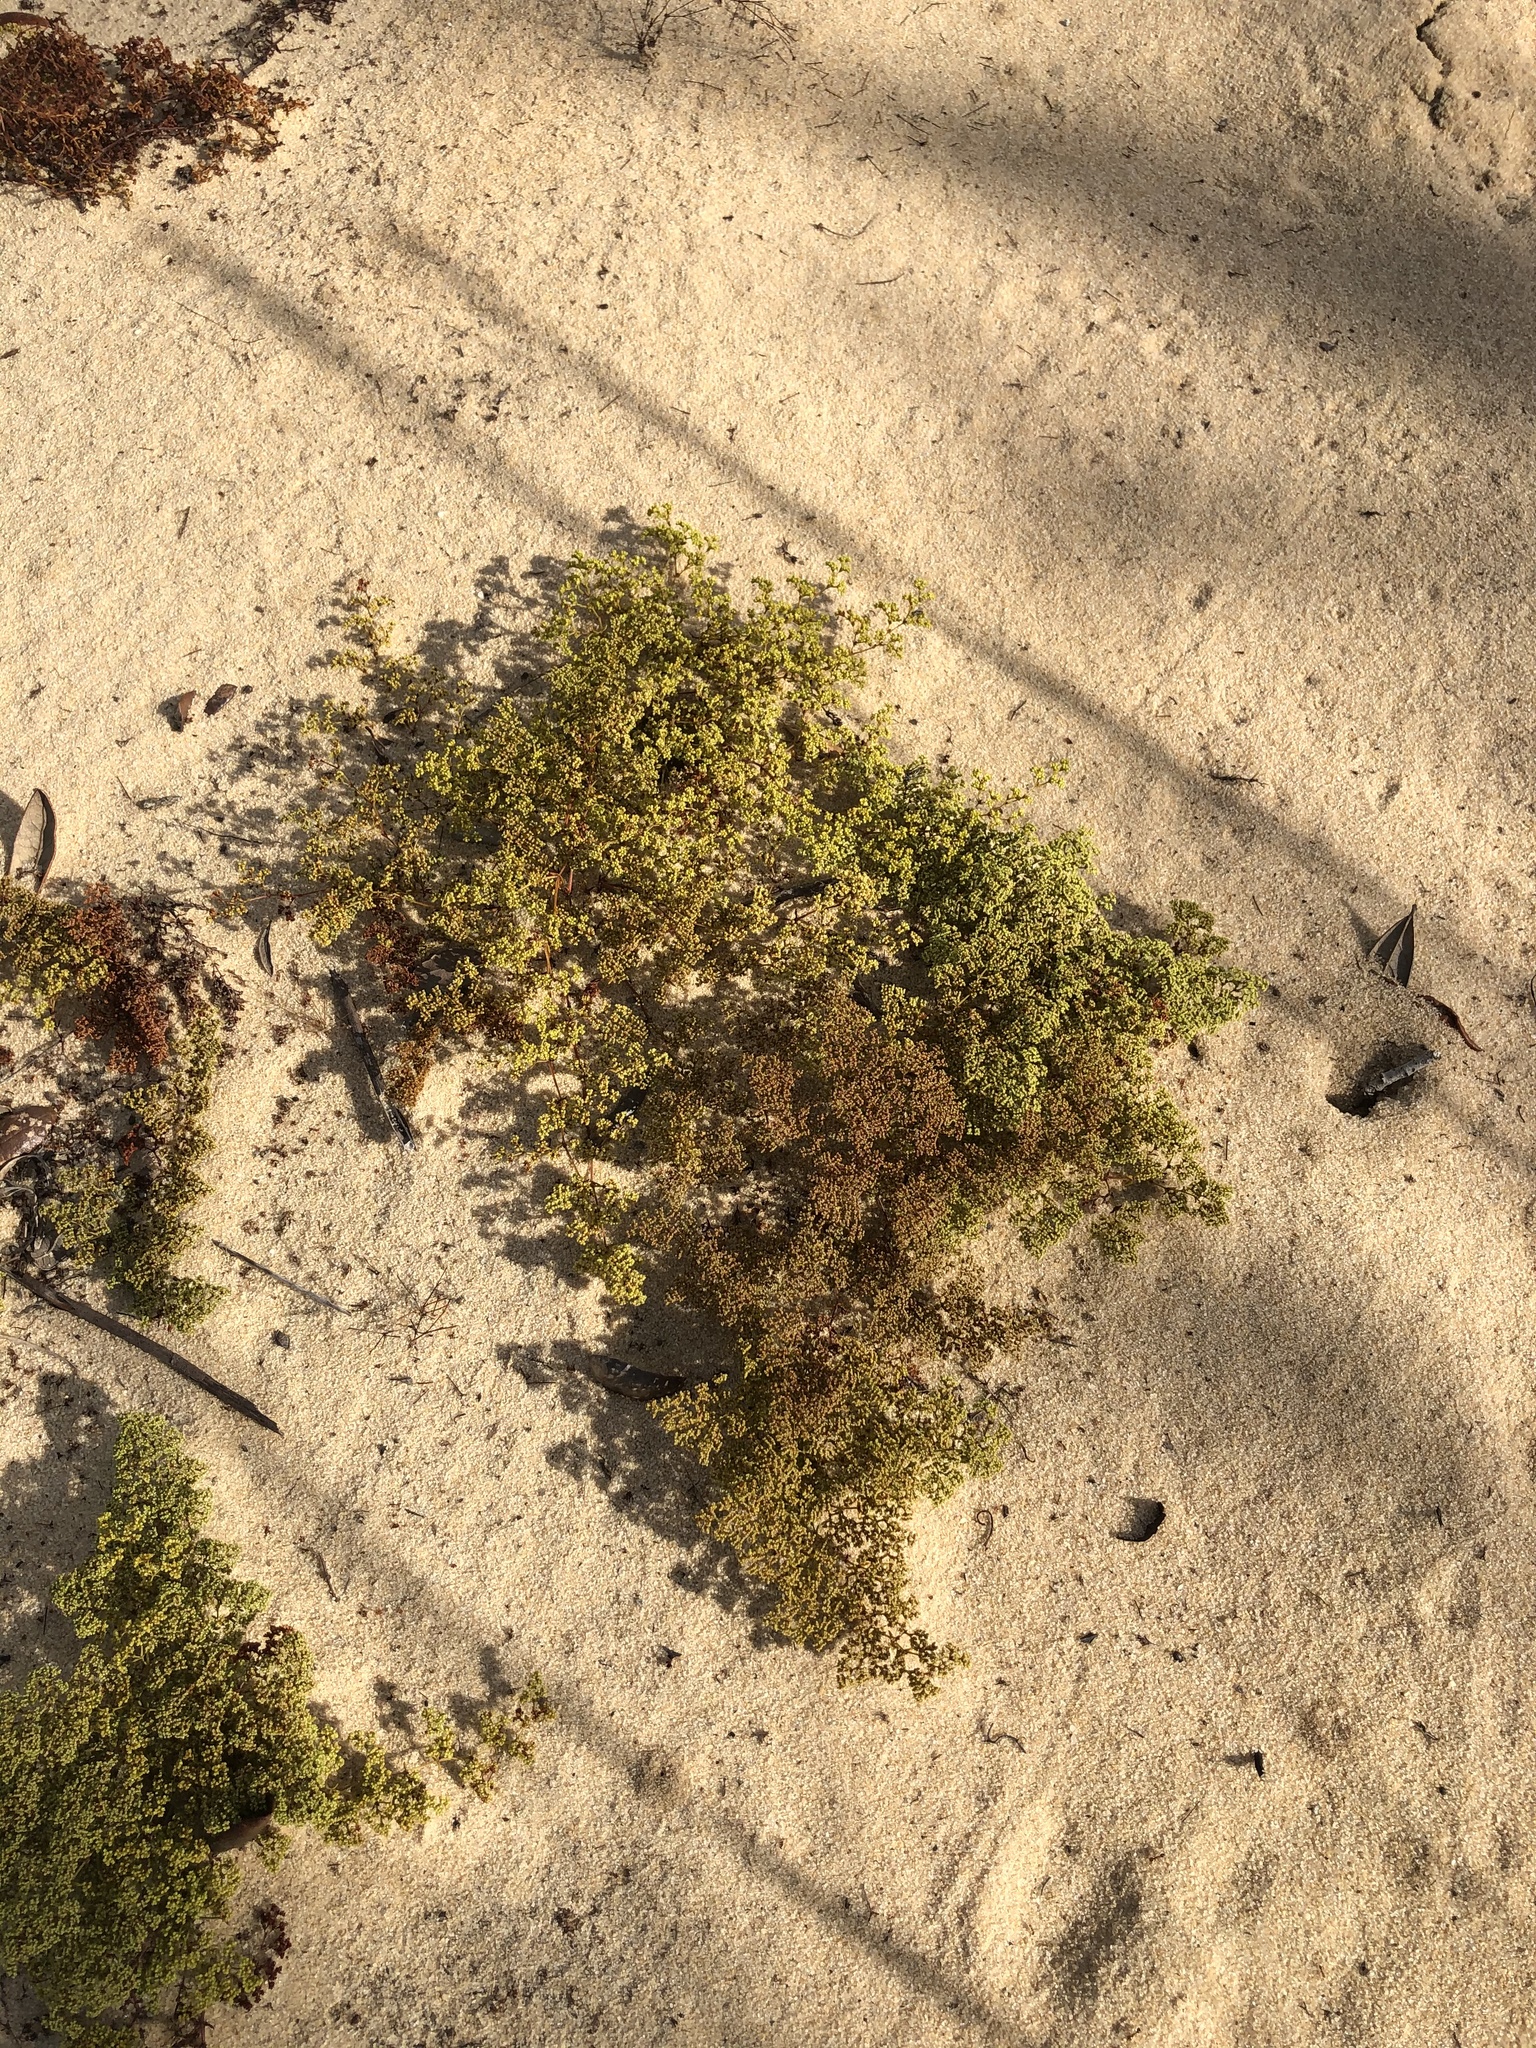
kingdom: Plantae
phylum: Tracheophyta
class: Magnoliopsida
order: Caryophyllales
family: Caryophyllaceae
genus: Paronychia
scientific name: Paronychia chartacea
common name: Paper nailwort
